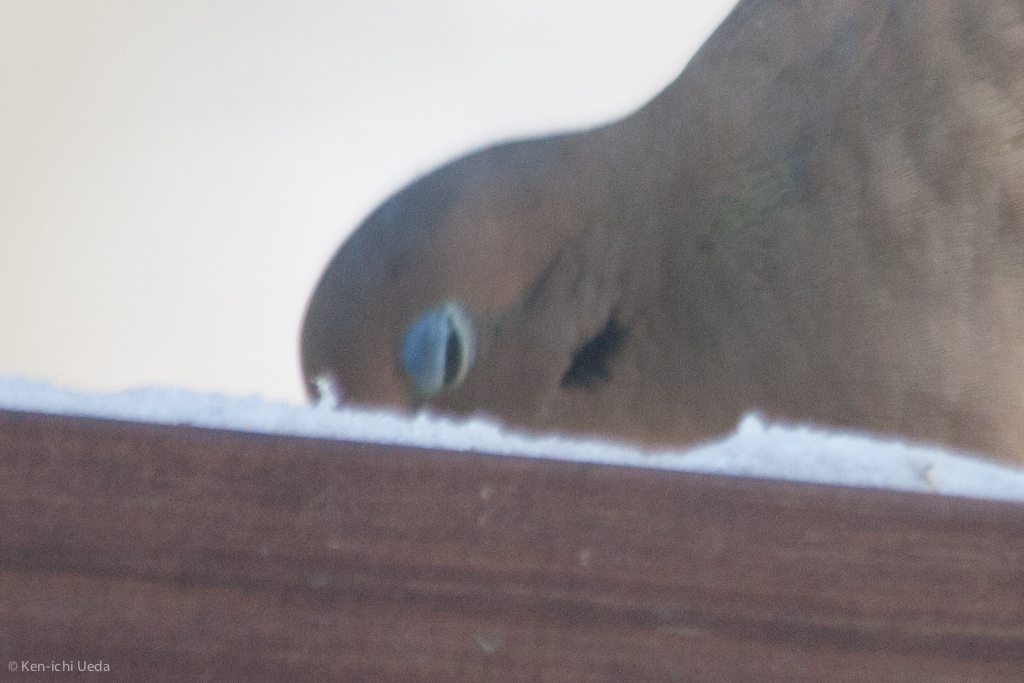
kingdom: Animalia
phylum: Chordata
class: Aves
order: Columbiformes
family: Columbidae
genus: Zenaida
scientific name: Zenaida macroura
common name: Mourning dove
